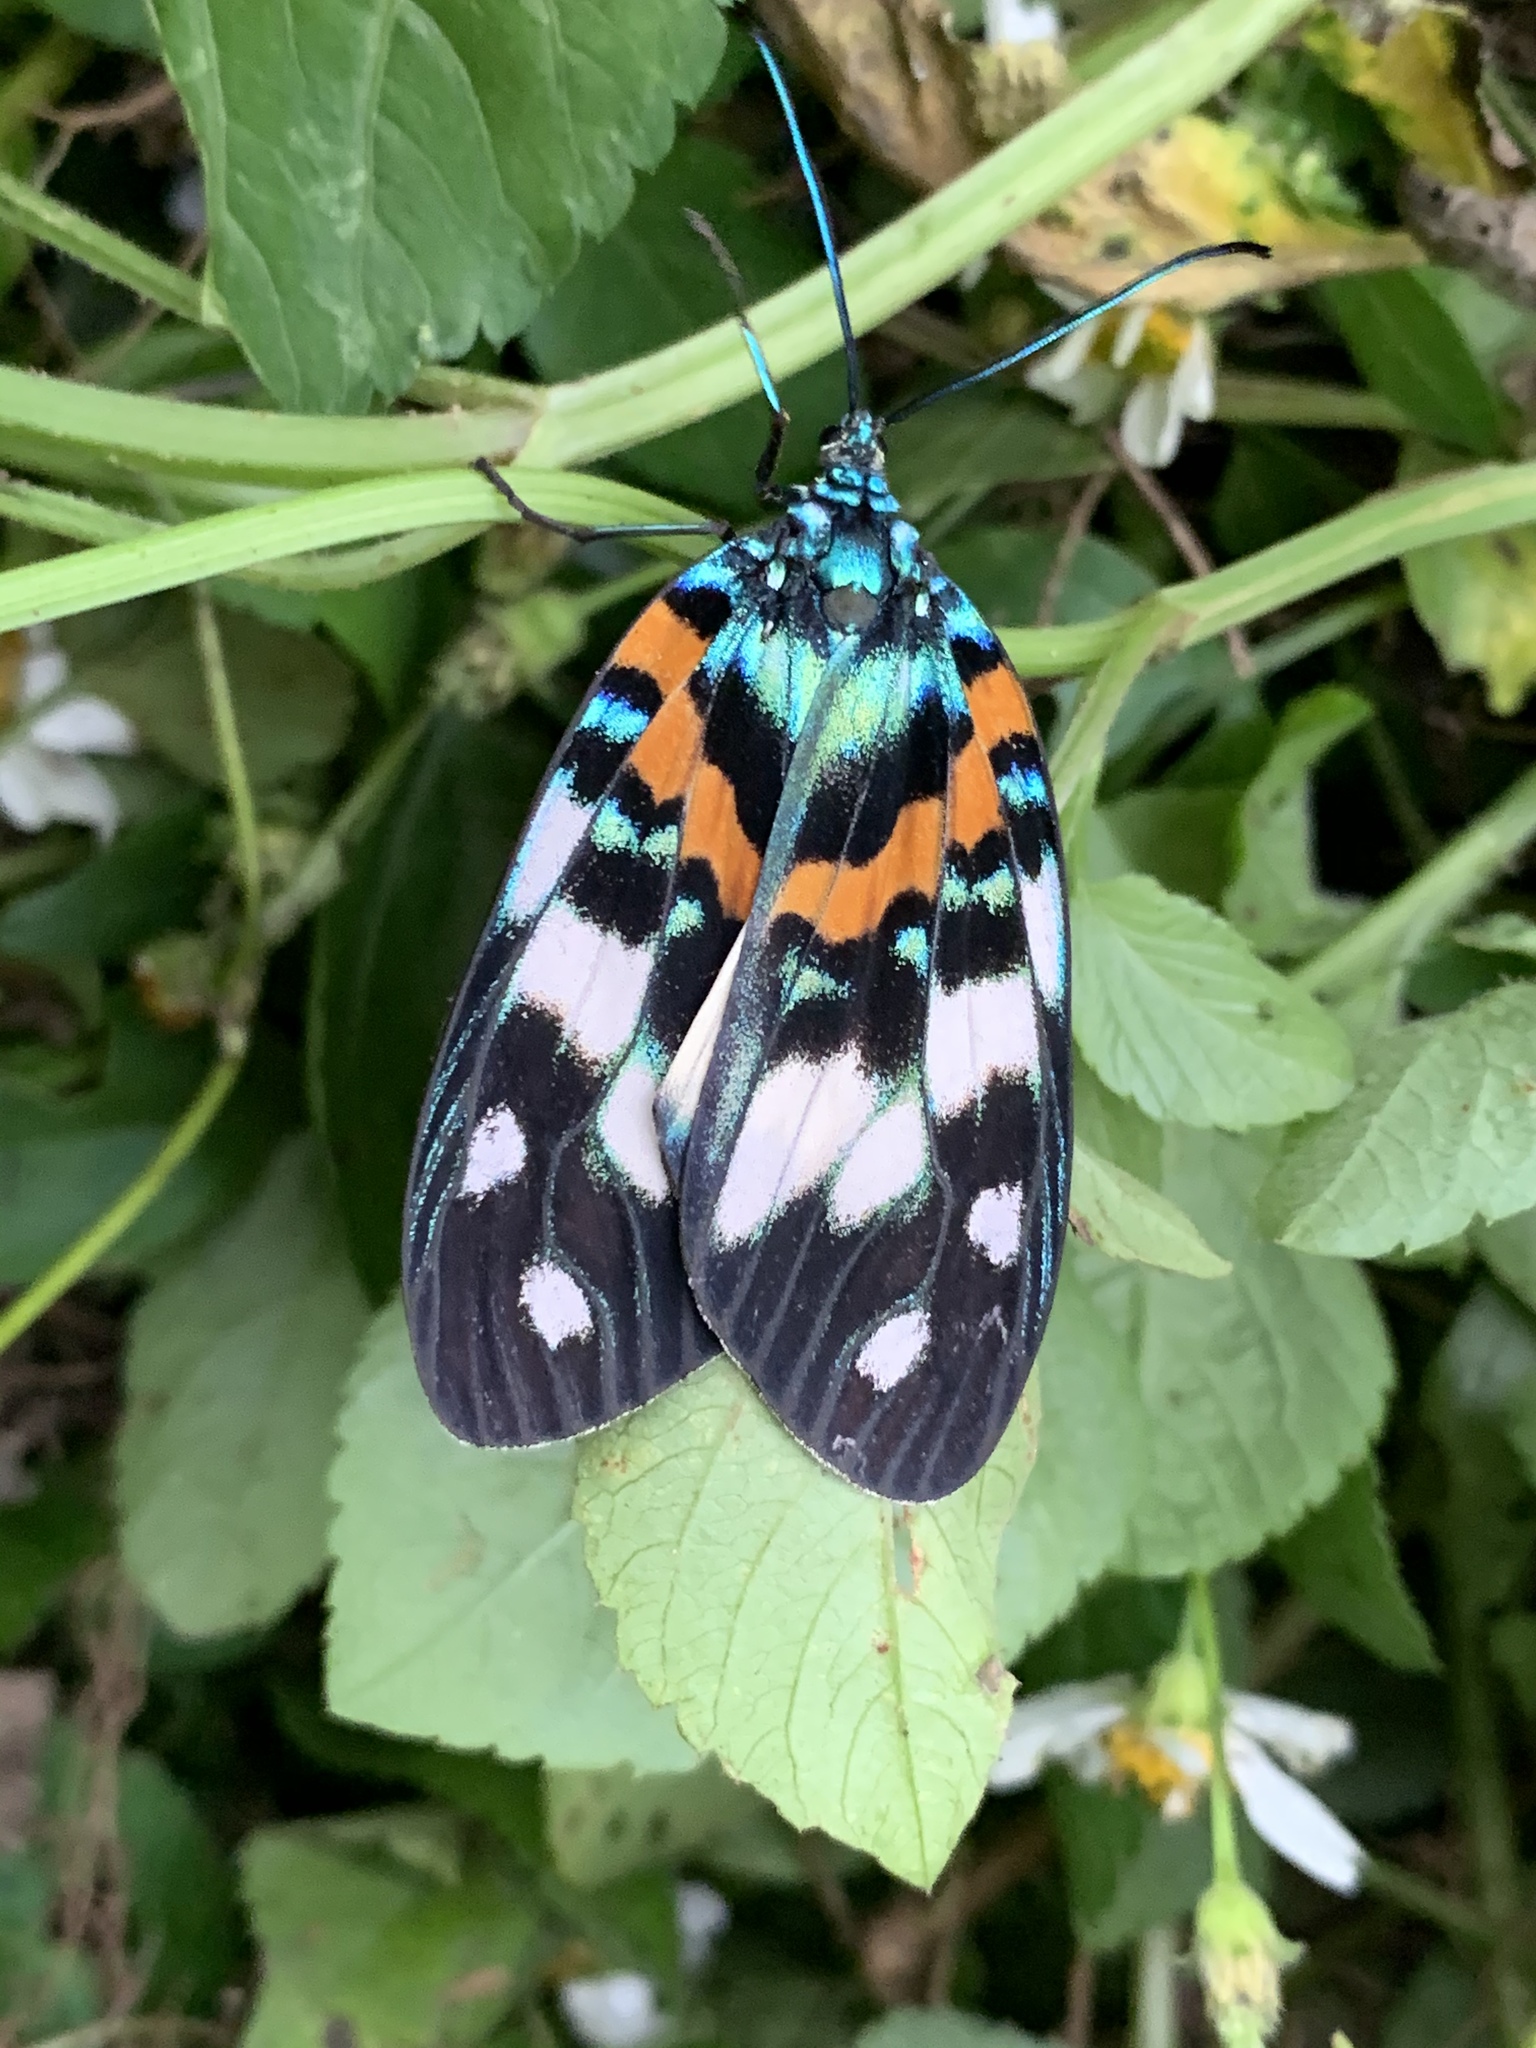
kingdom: Animalia
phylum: Arthropoda
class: Insecta
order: Lepidoptera
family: Zygaenidae
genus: Erasmia
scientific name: Erasmia pulchella
